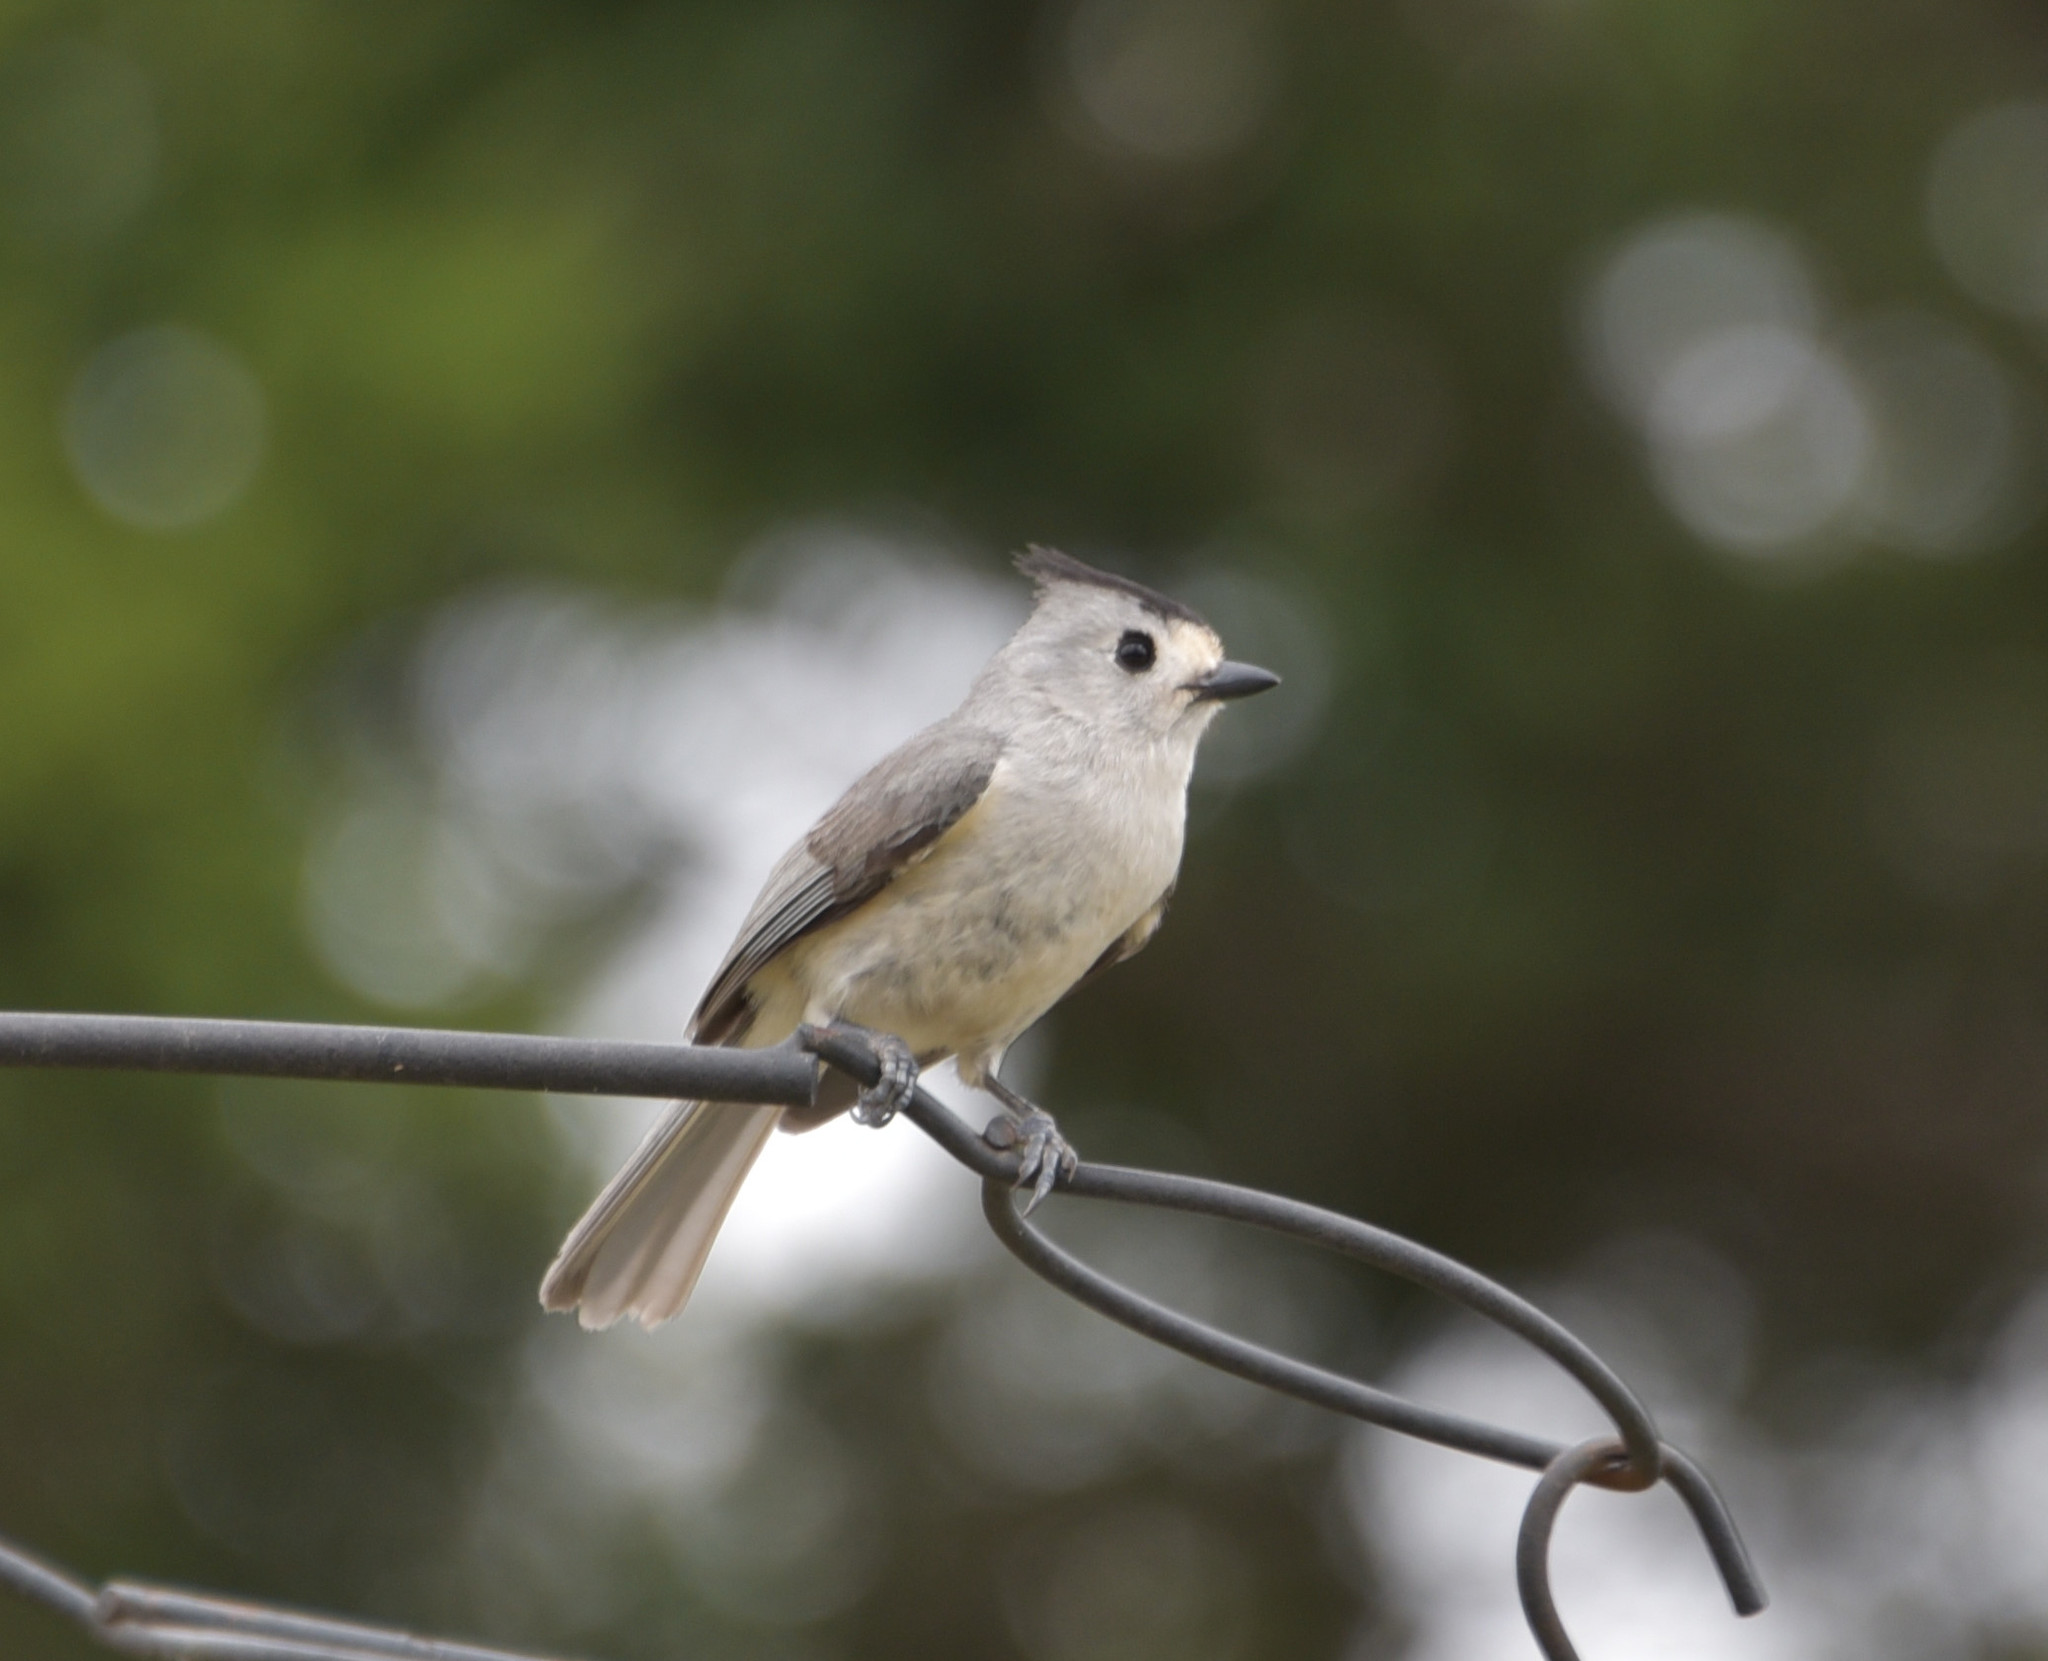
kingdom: Animalia
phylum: Chordata
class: Aves
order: Passeriformes
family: Paridae
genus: Baeolophus
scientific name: Baeolophus atricristatus
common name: Black-crested titmouse
